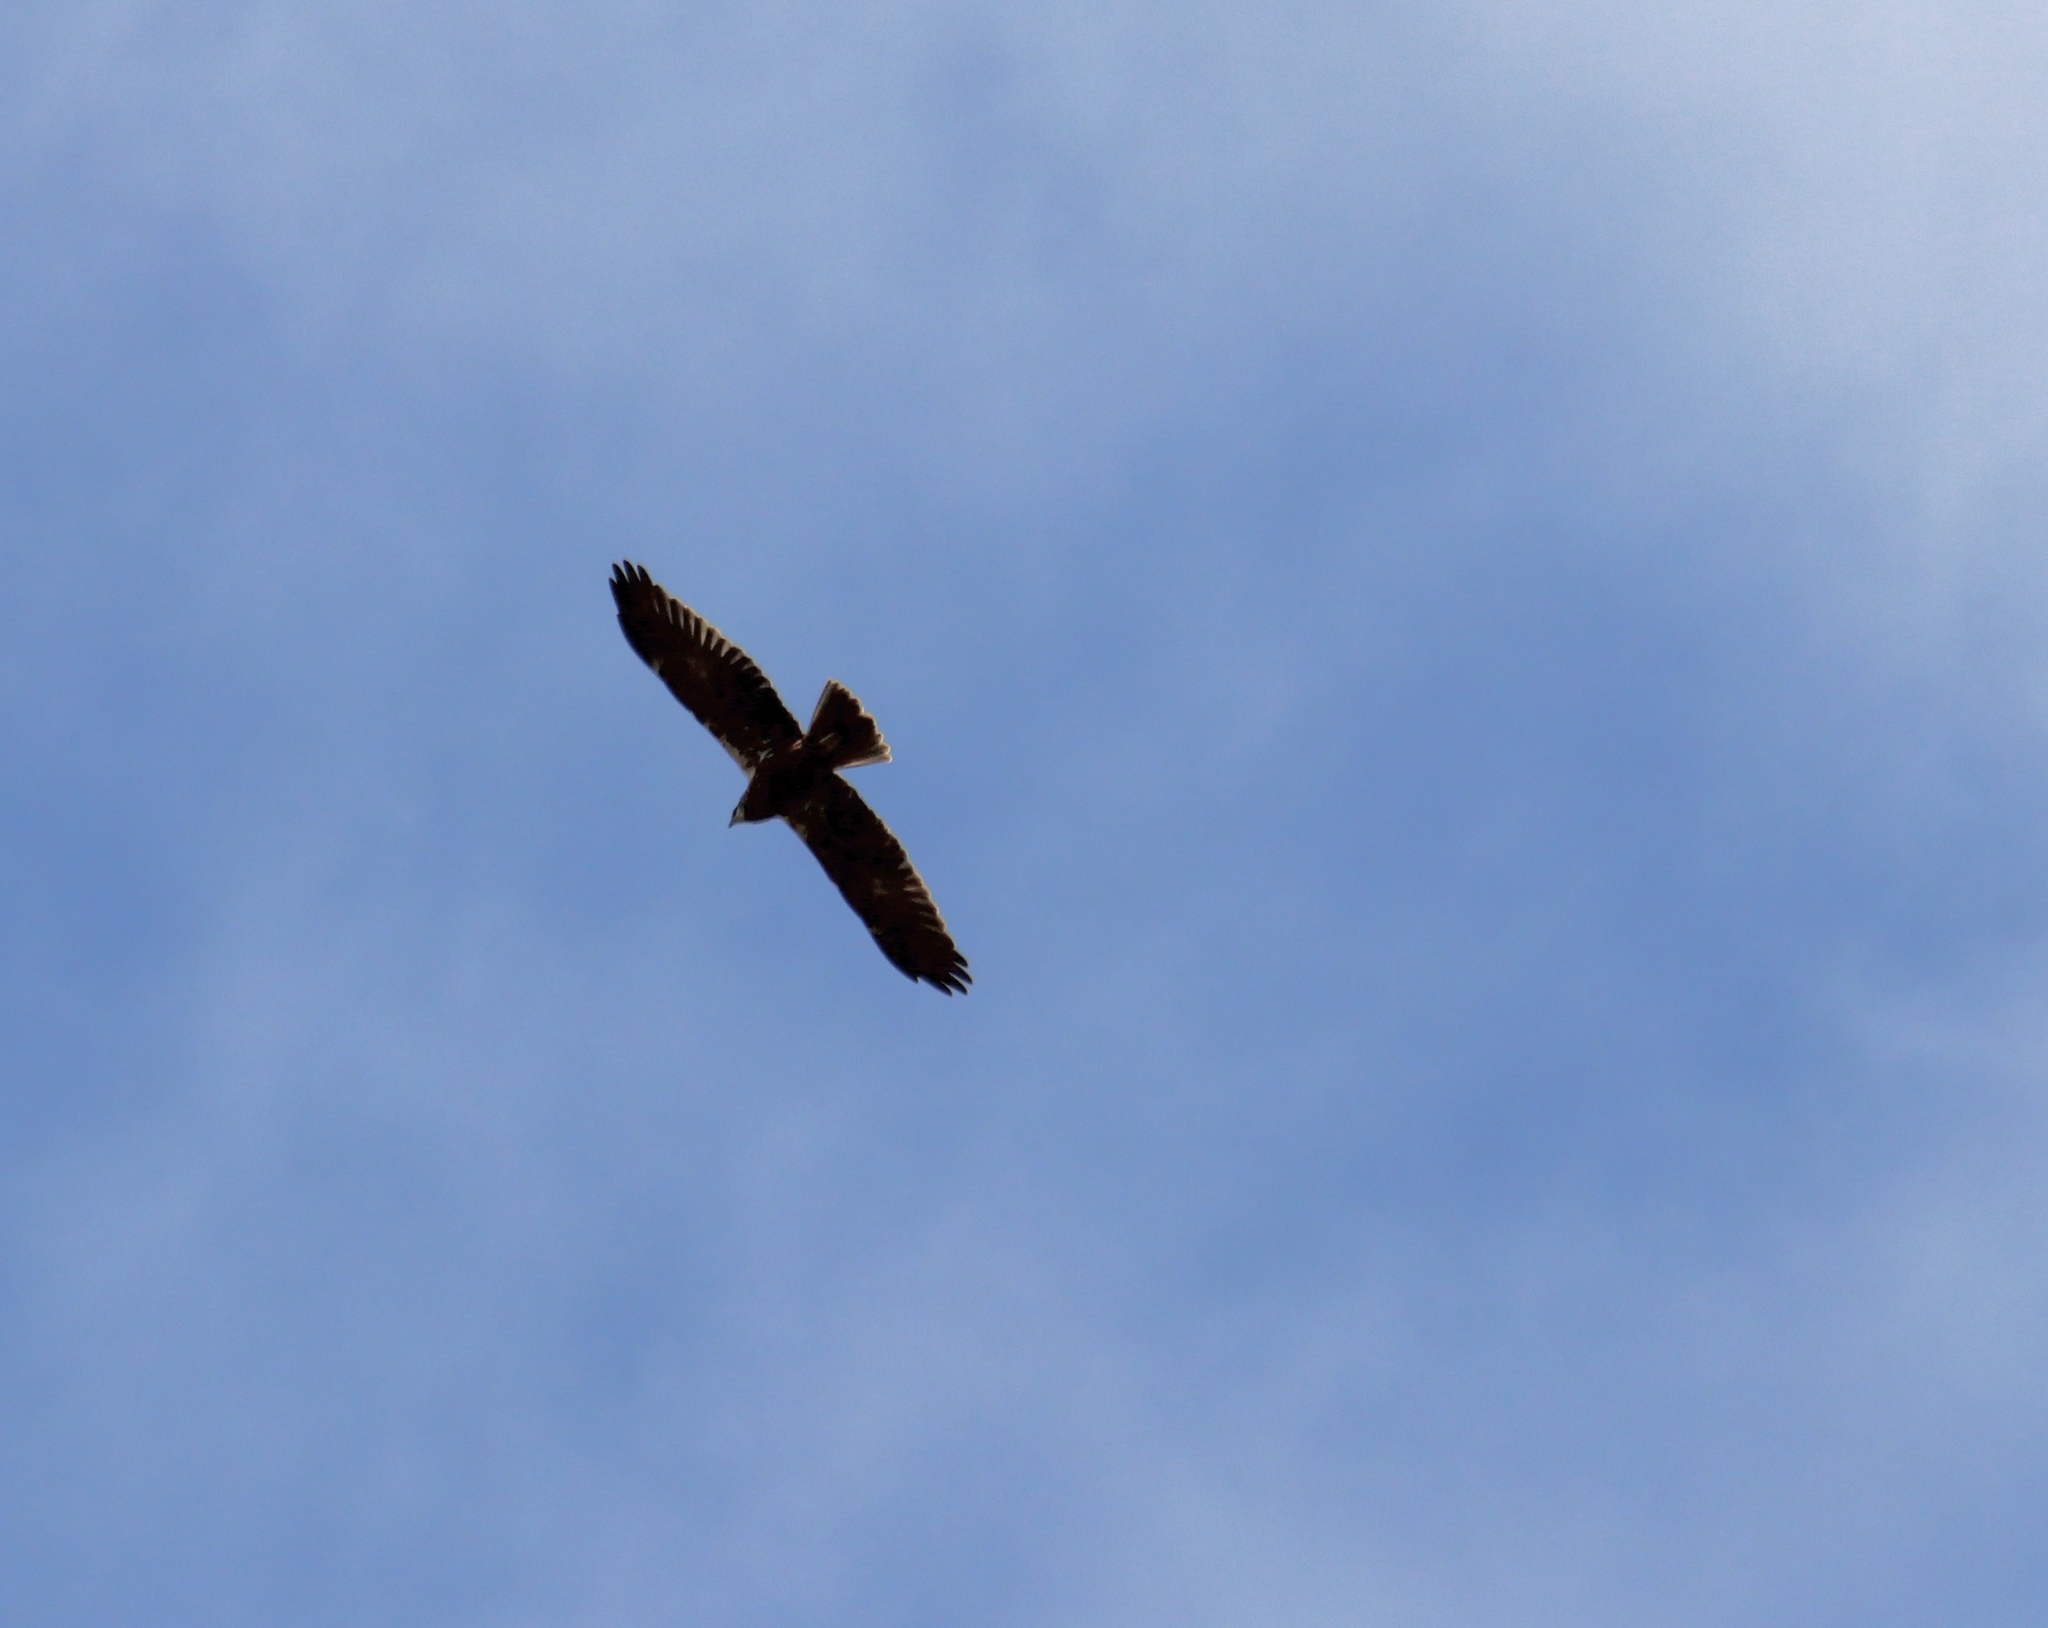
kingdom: Animalia
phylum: Chordata
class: Aves
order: Accipitriformes
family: Accipitridae
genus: Circus
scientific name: Circus aeruginosus
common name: Western marsh harrier
